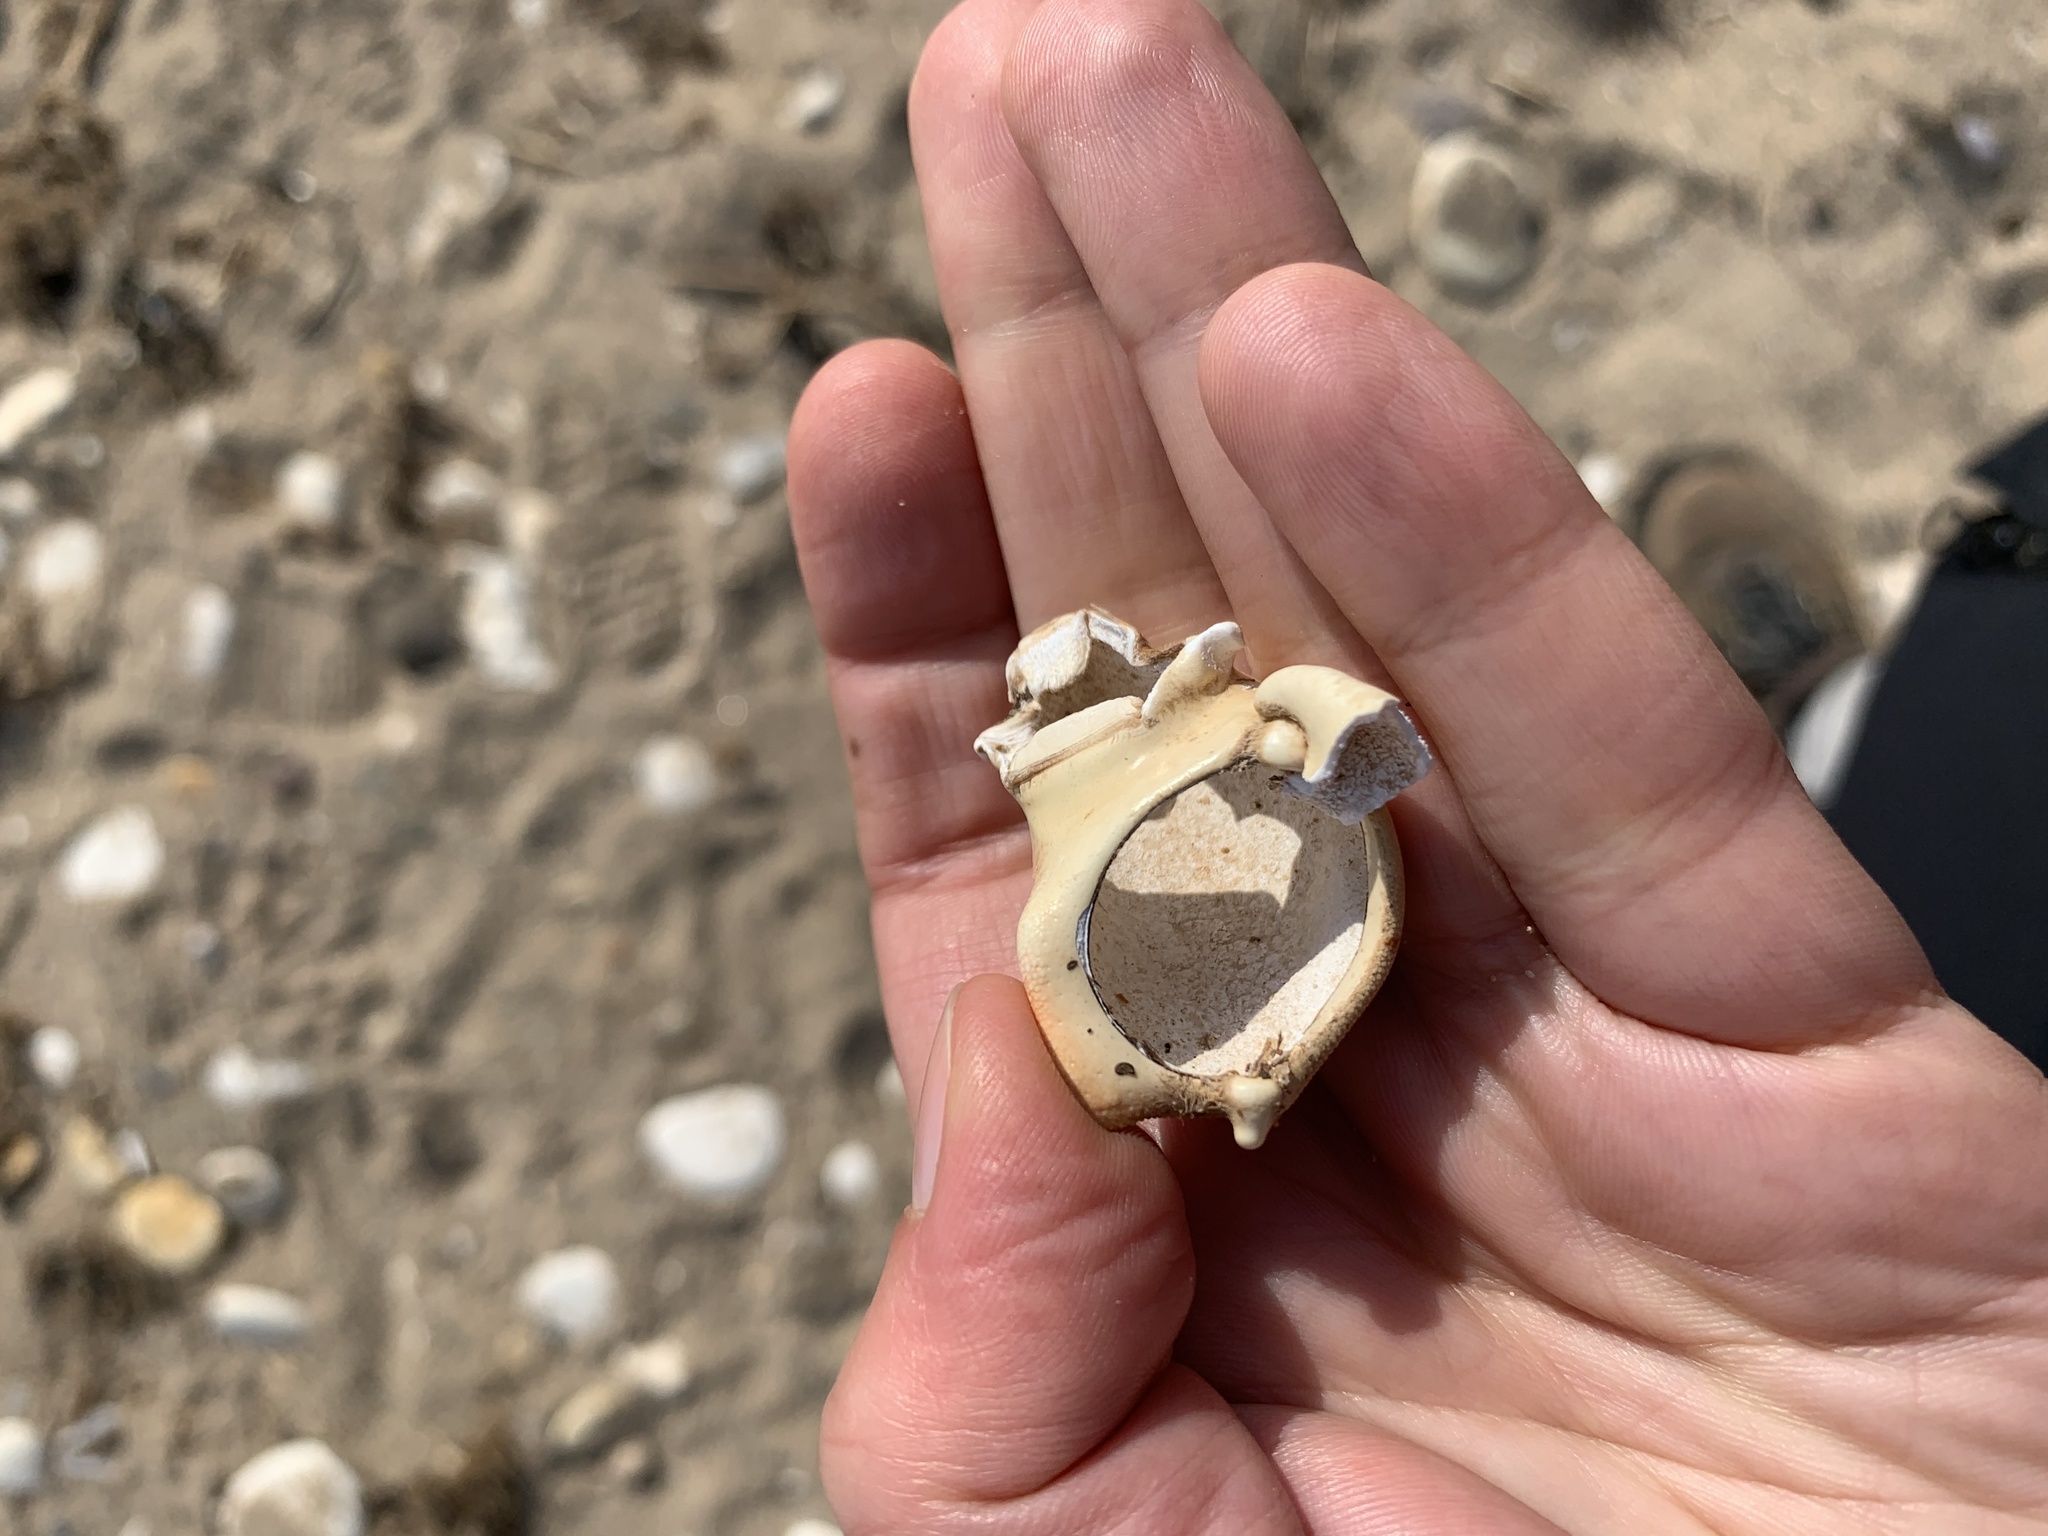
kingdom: Animalia
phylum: Arthropoda
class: Malacostraca
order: Decapoda
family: Cancridae
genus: Cancer
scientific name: Cancer pagurus
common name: Edible crab
